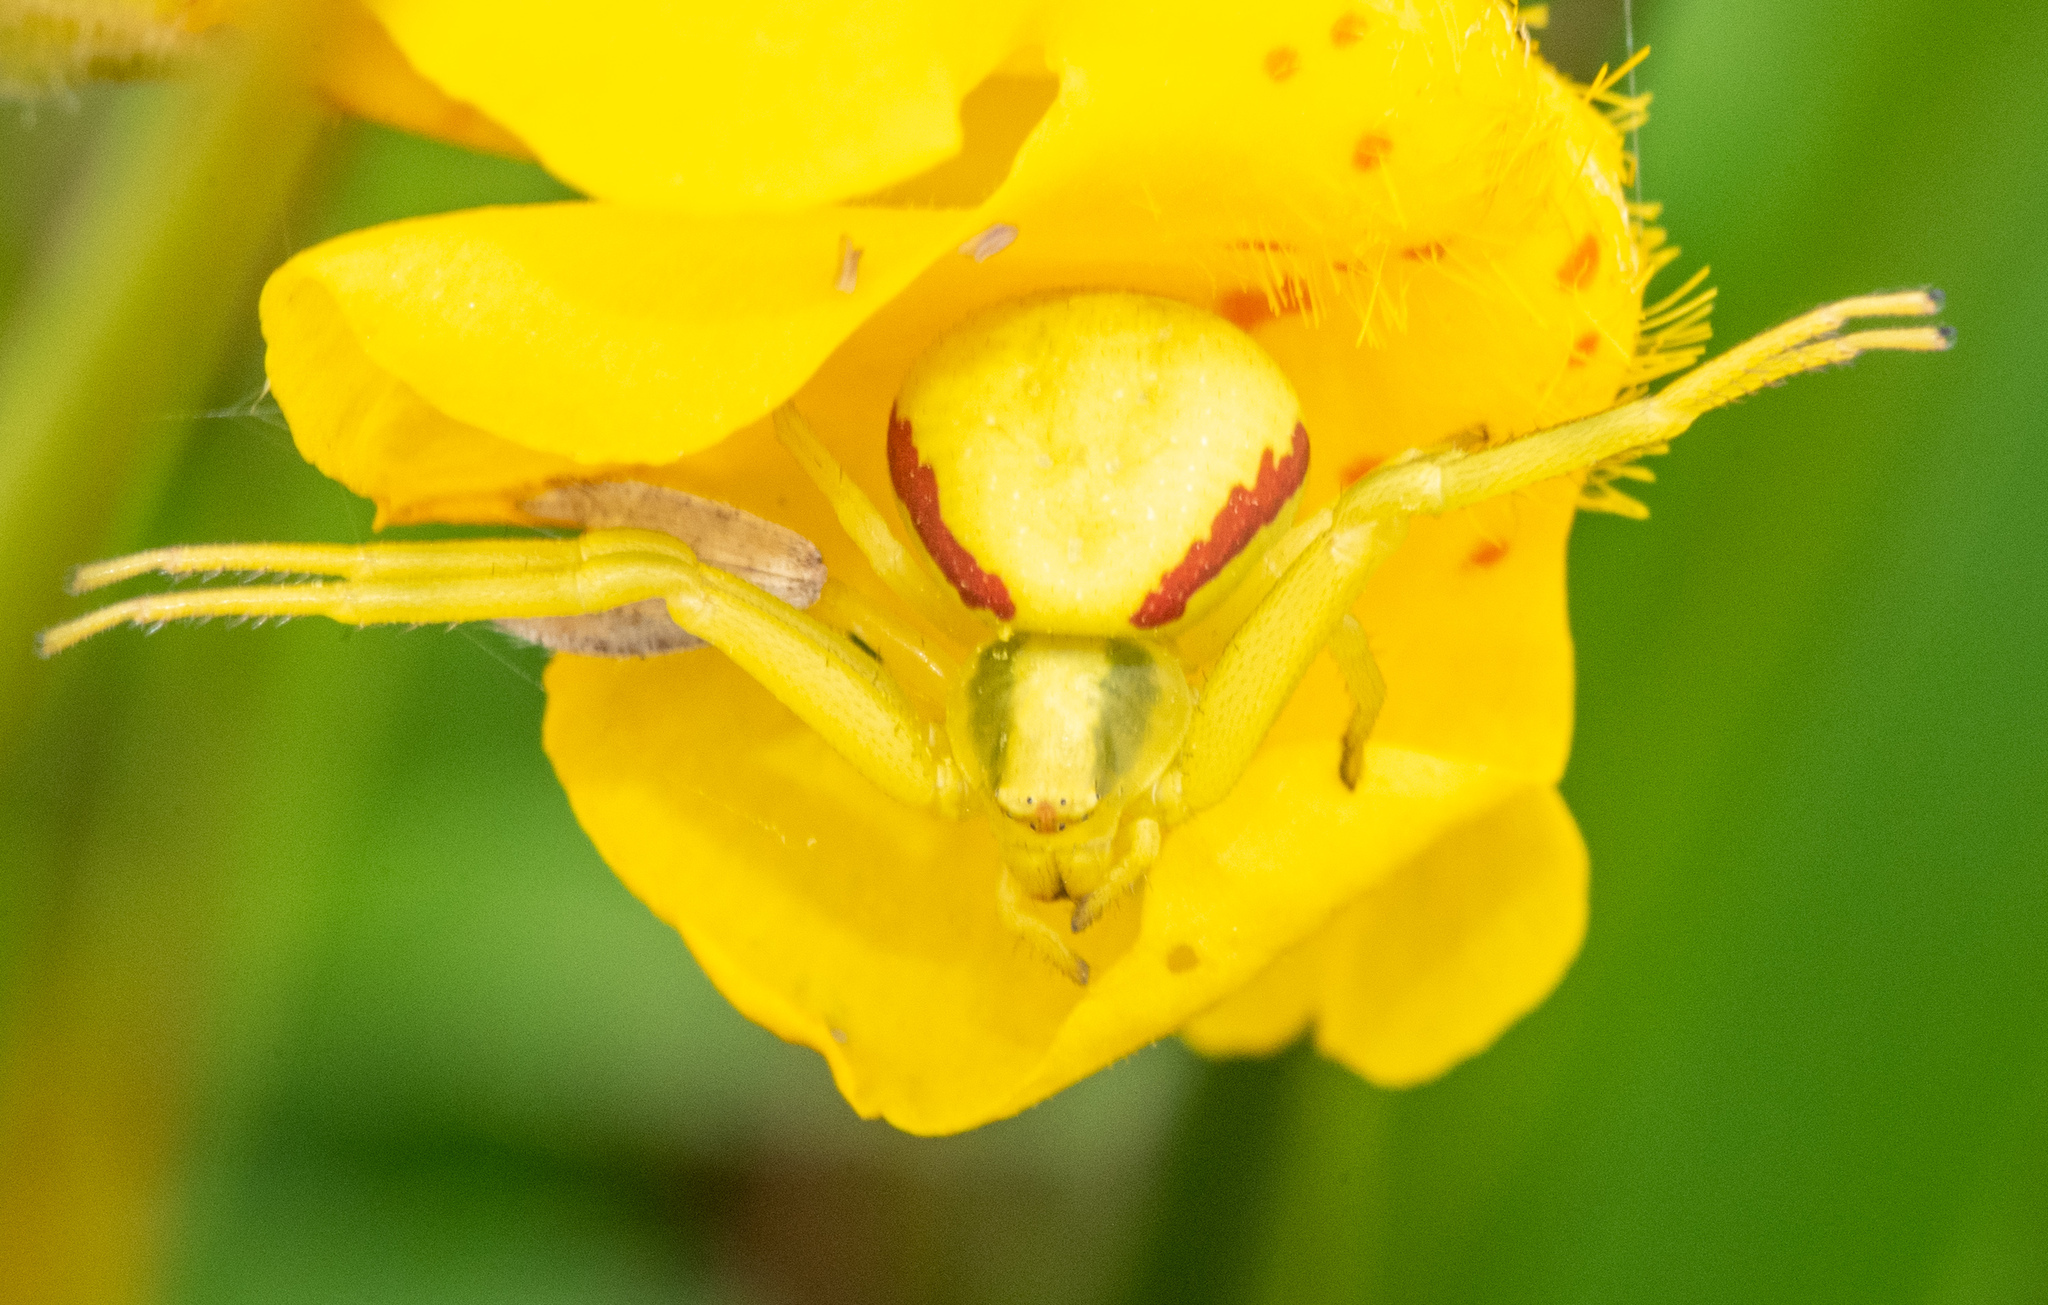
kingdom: Animalia
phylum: Arthropoda
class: Arachnida
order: Araneae
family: Thomisidae
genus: Misumena
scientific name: Misumena vatia
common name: Goldenrod crab spider
